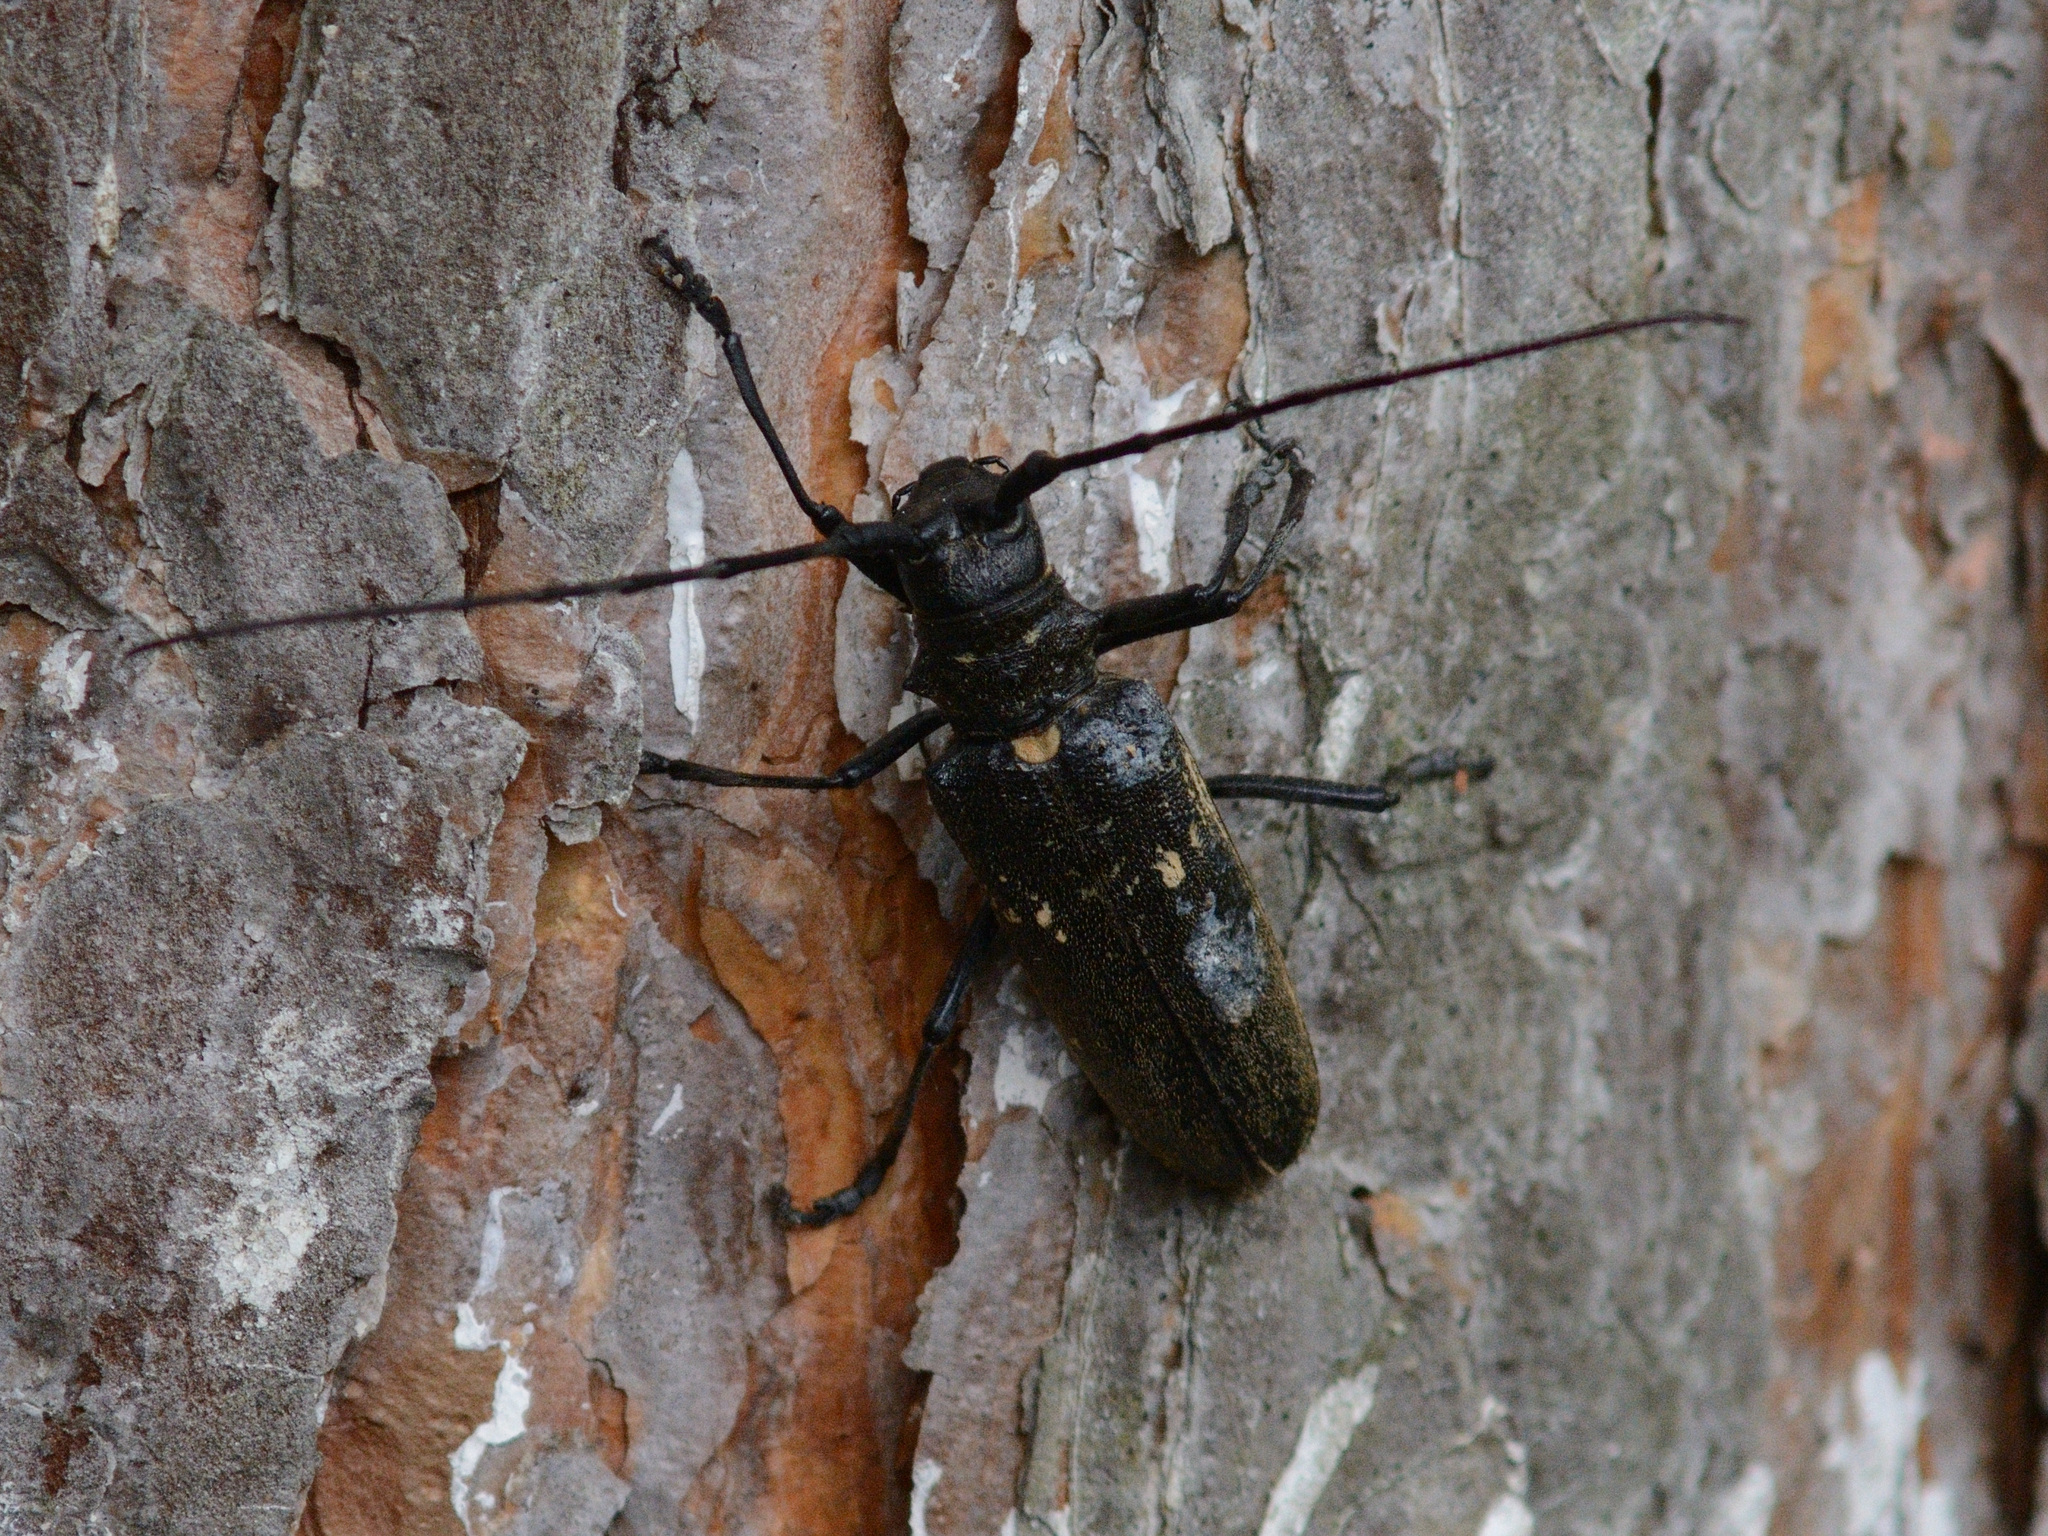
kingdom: Animalia
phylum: Arthropoda
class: Insecta
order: Coleoptera
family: Cerambycidae
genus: Monochamus
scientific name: Monochamus sartor
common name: Pine sawyer
